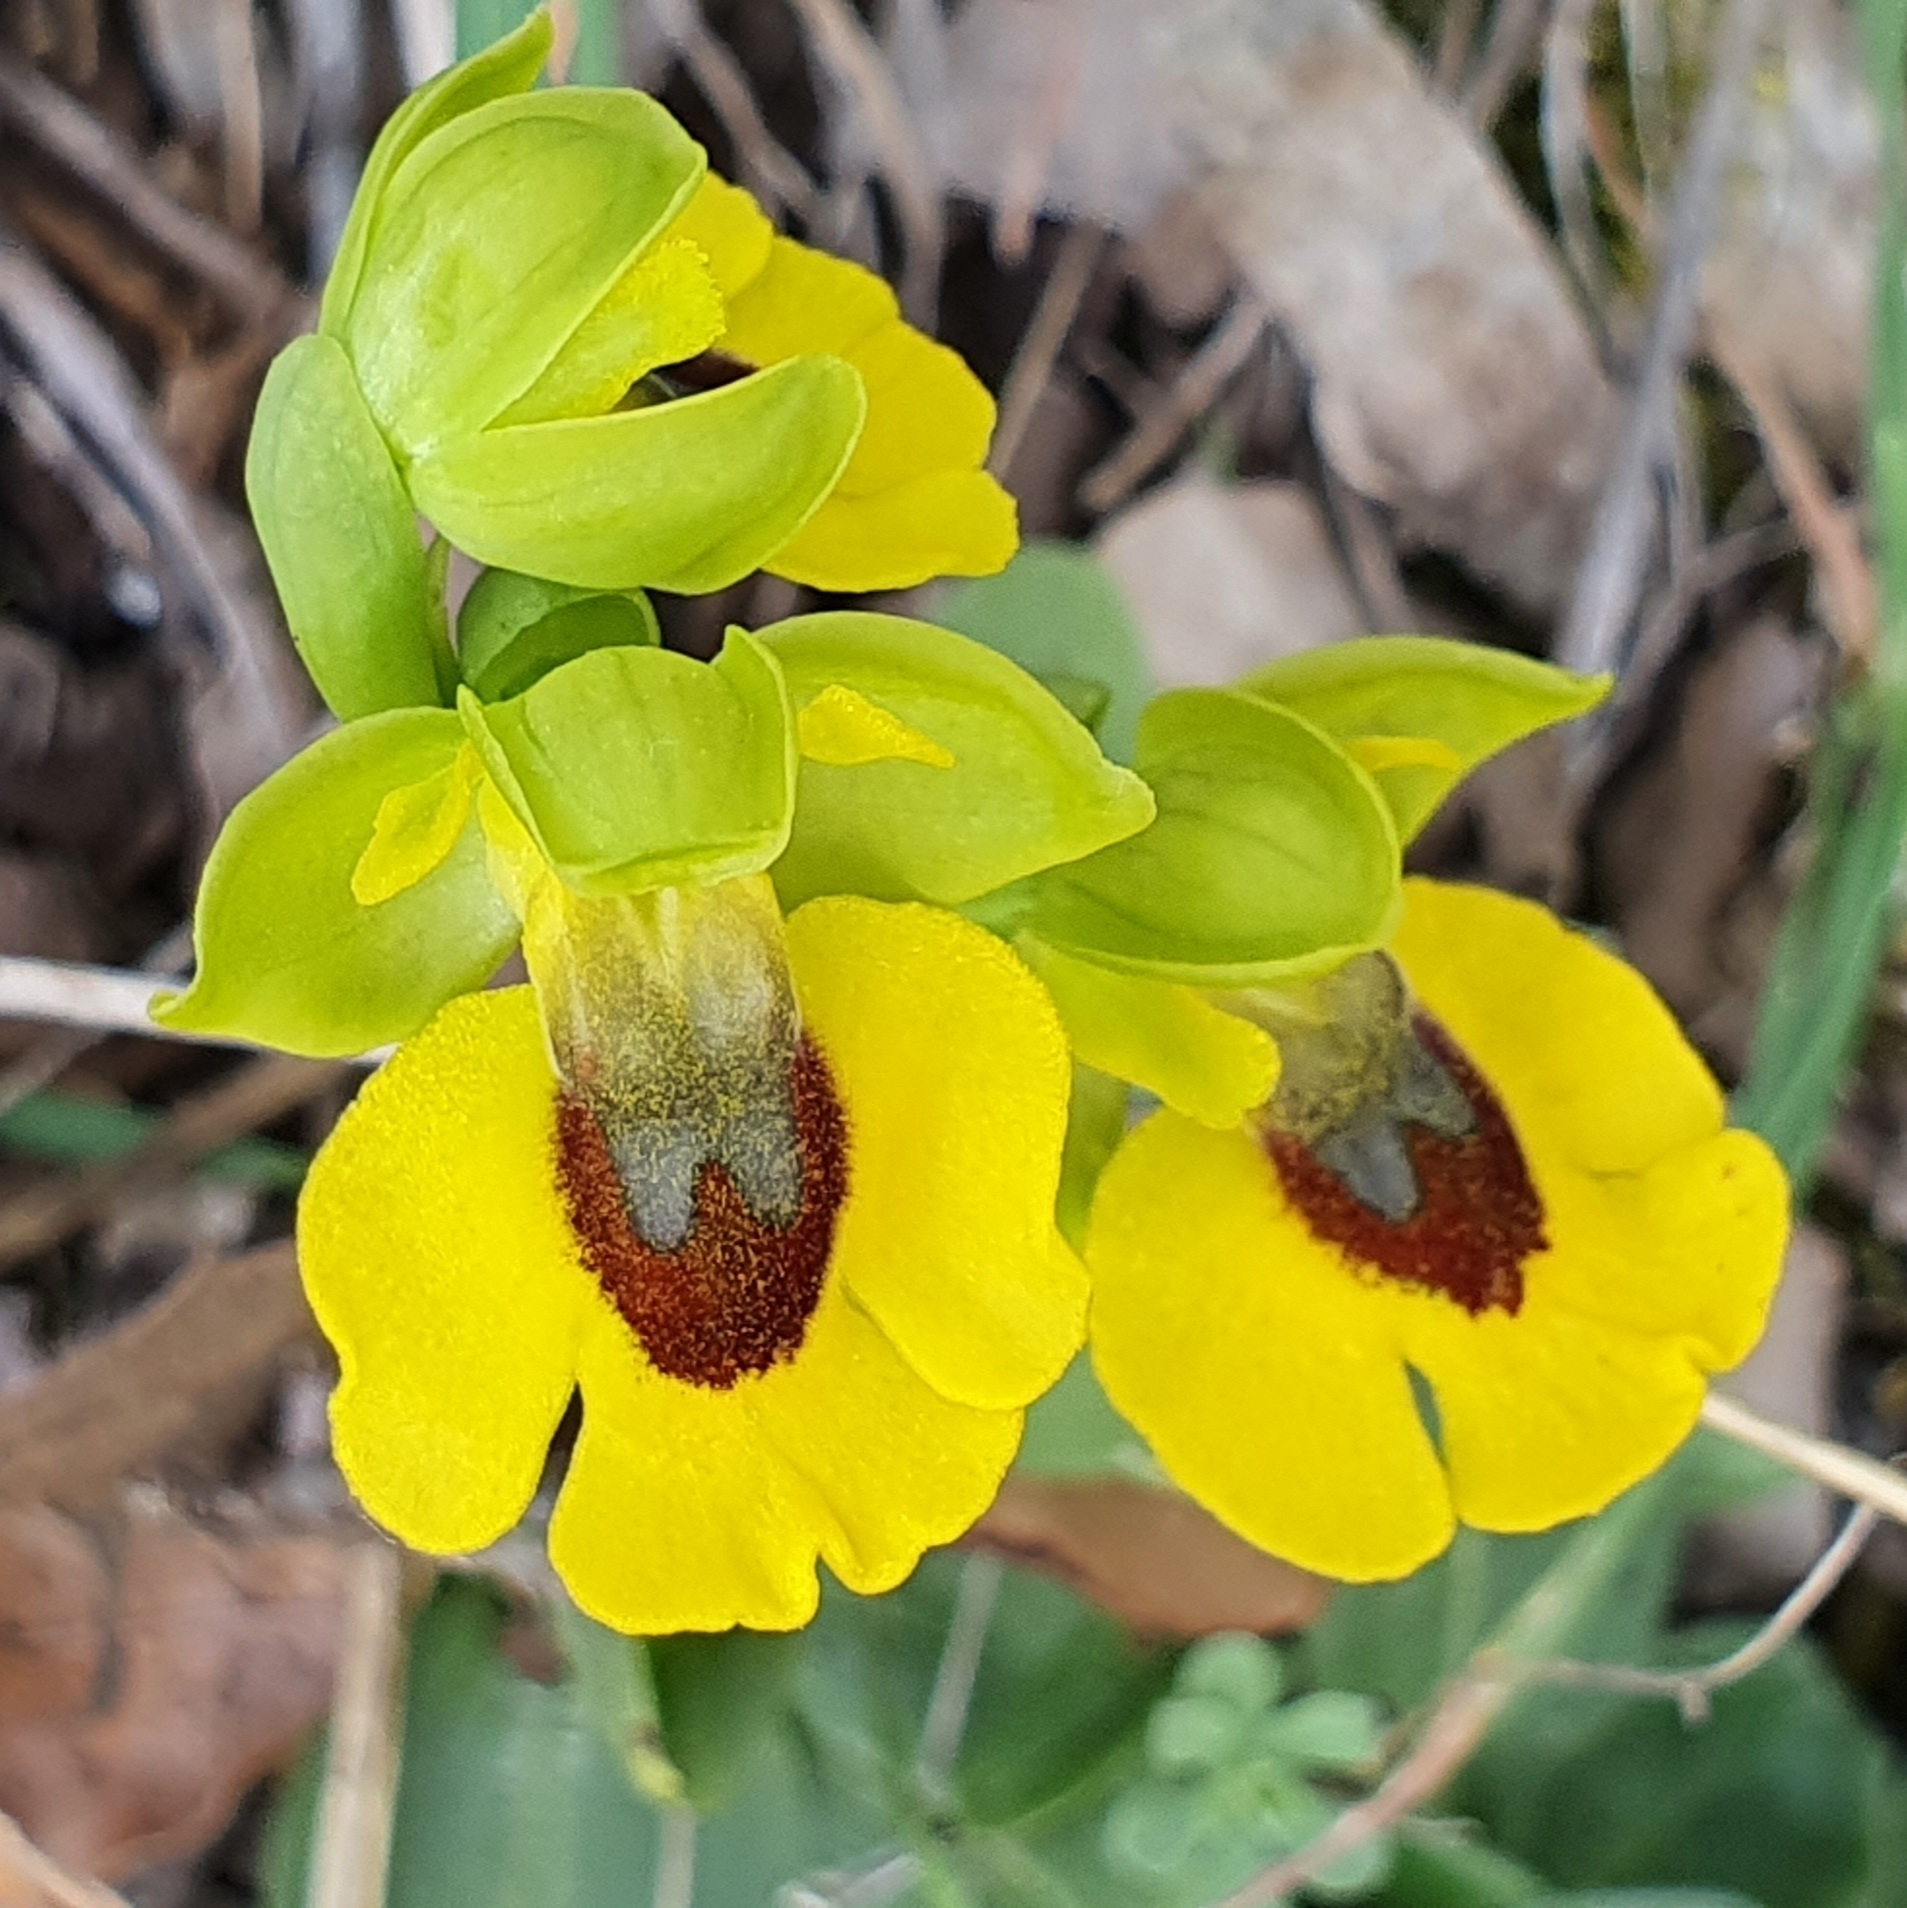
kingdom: Plantae
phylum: Tracheophyta
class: Liliopsida
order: Asparagales
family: Orchidaceae
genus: Ophrys
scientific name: Ophrys lutea
